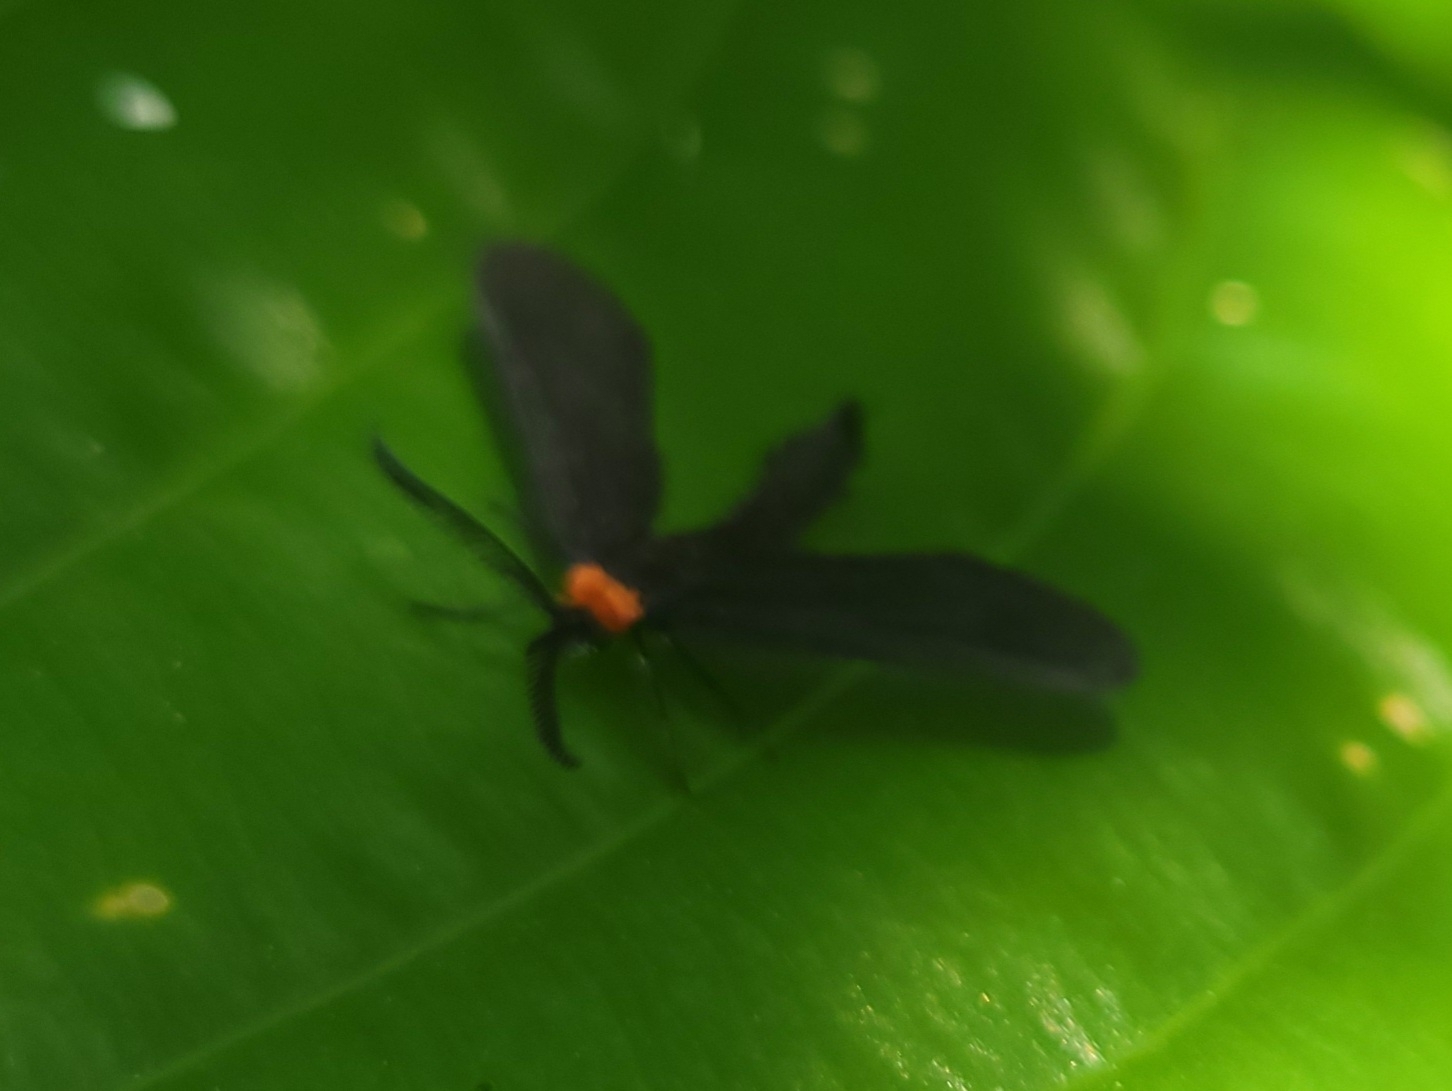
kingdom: Animalia
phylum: Arthropoda
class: Insecta
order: Lepidoptera
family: Zygaenidae
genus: Harrisina
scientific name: Harrisina americana
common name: Grapeleaf skeletonizer moth
